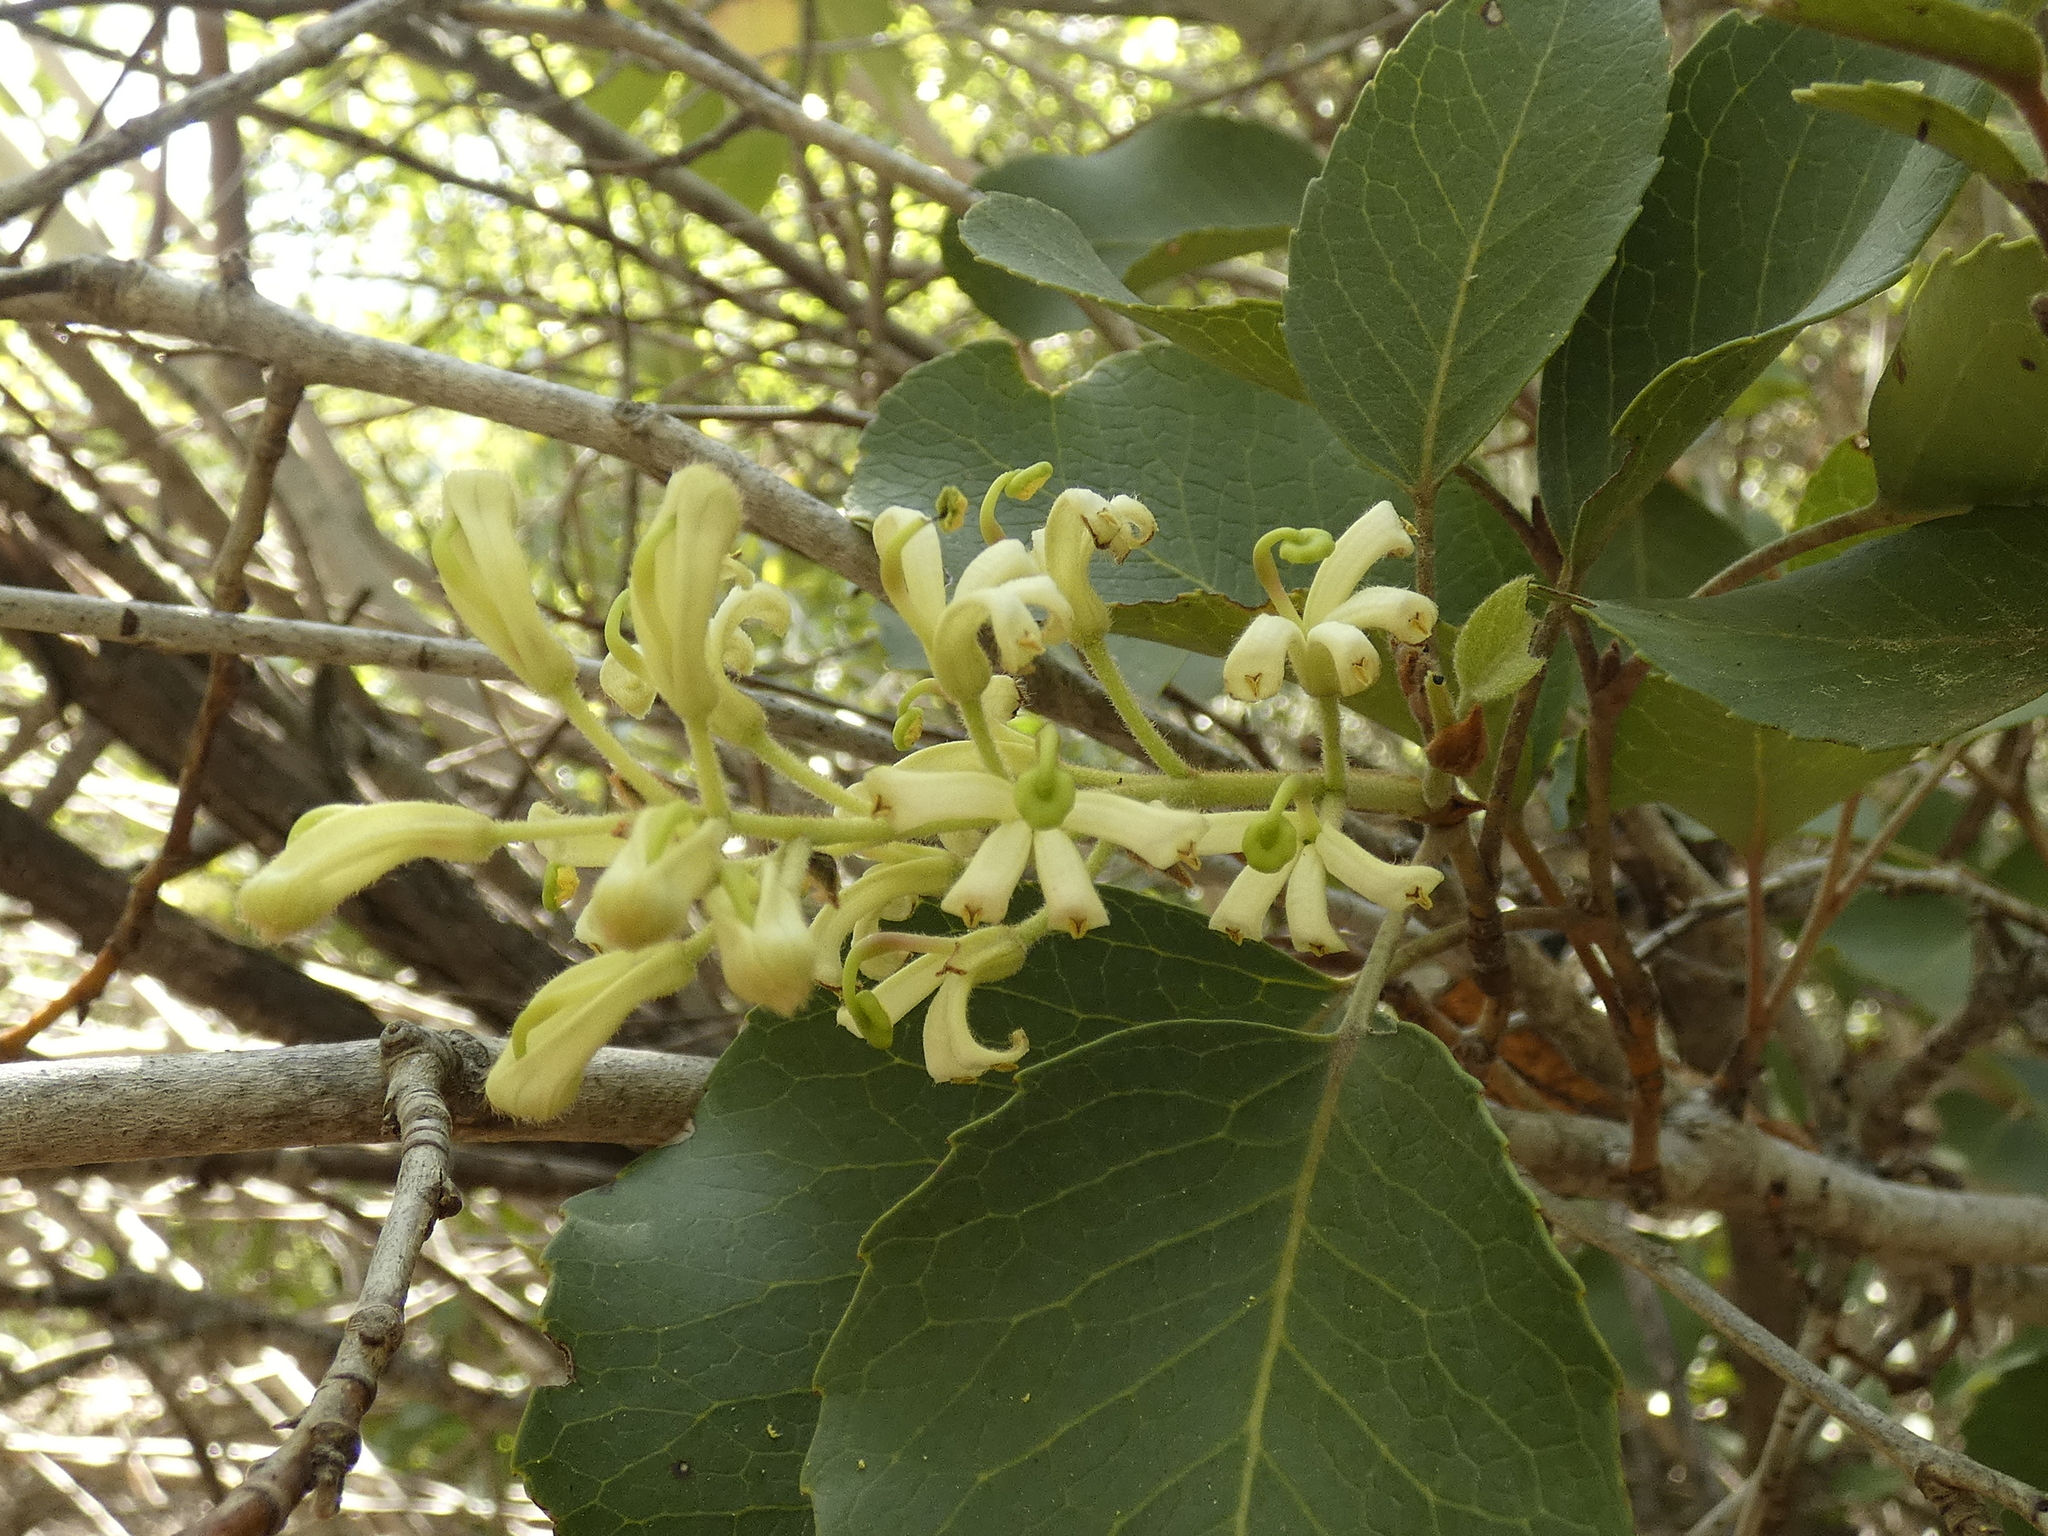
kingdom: Plantae
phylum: Tracheophyta
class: Magnoliopsida
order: Proteales
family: Proteaceae
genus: Lomatia
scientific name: Lomatia hirsuta
